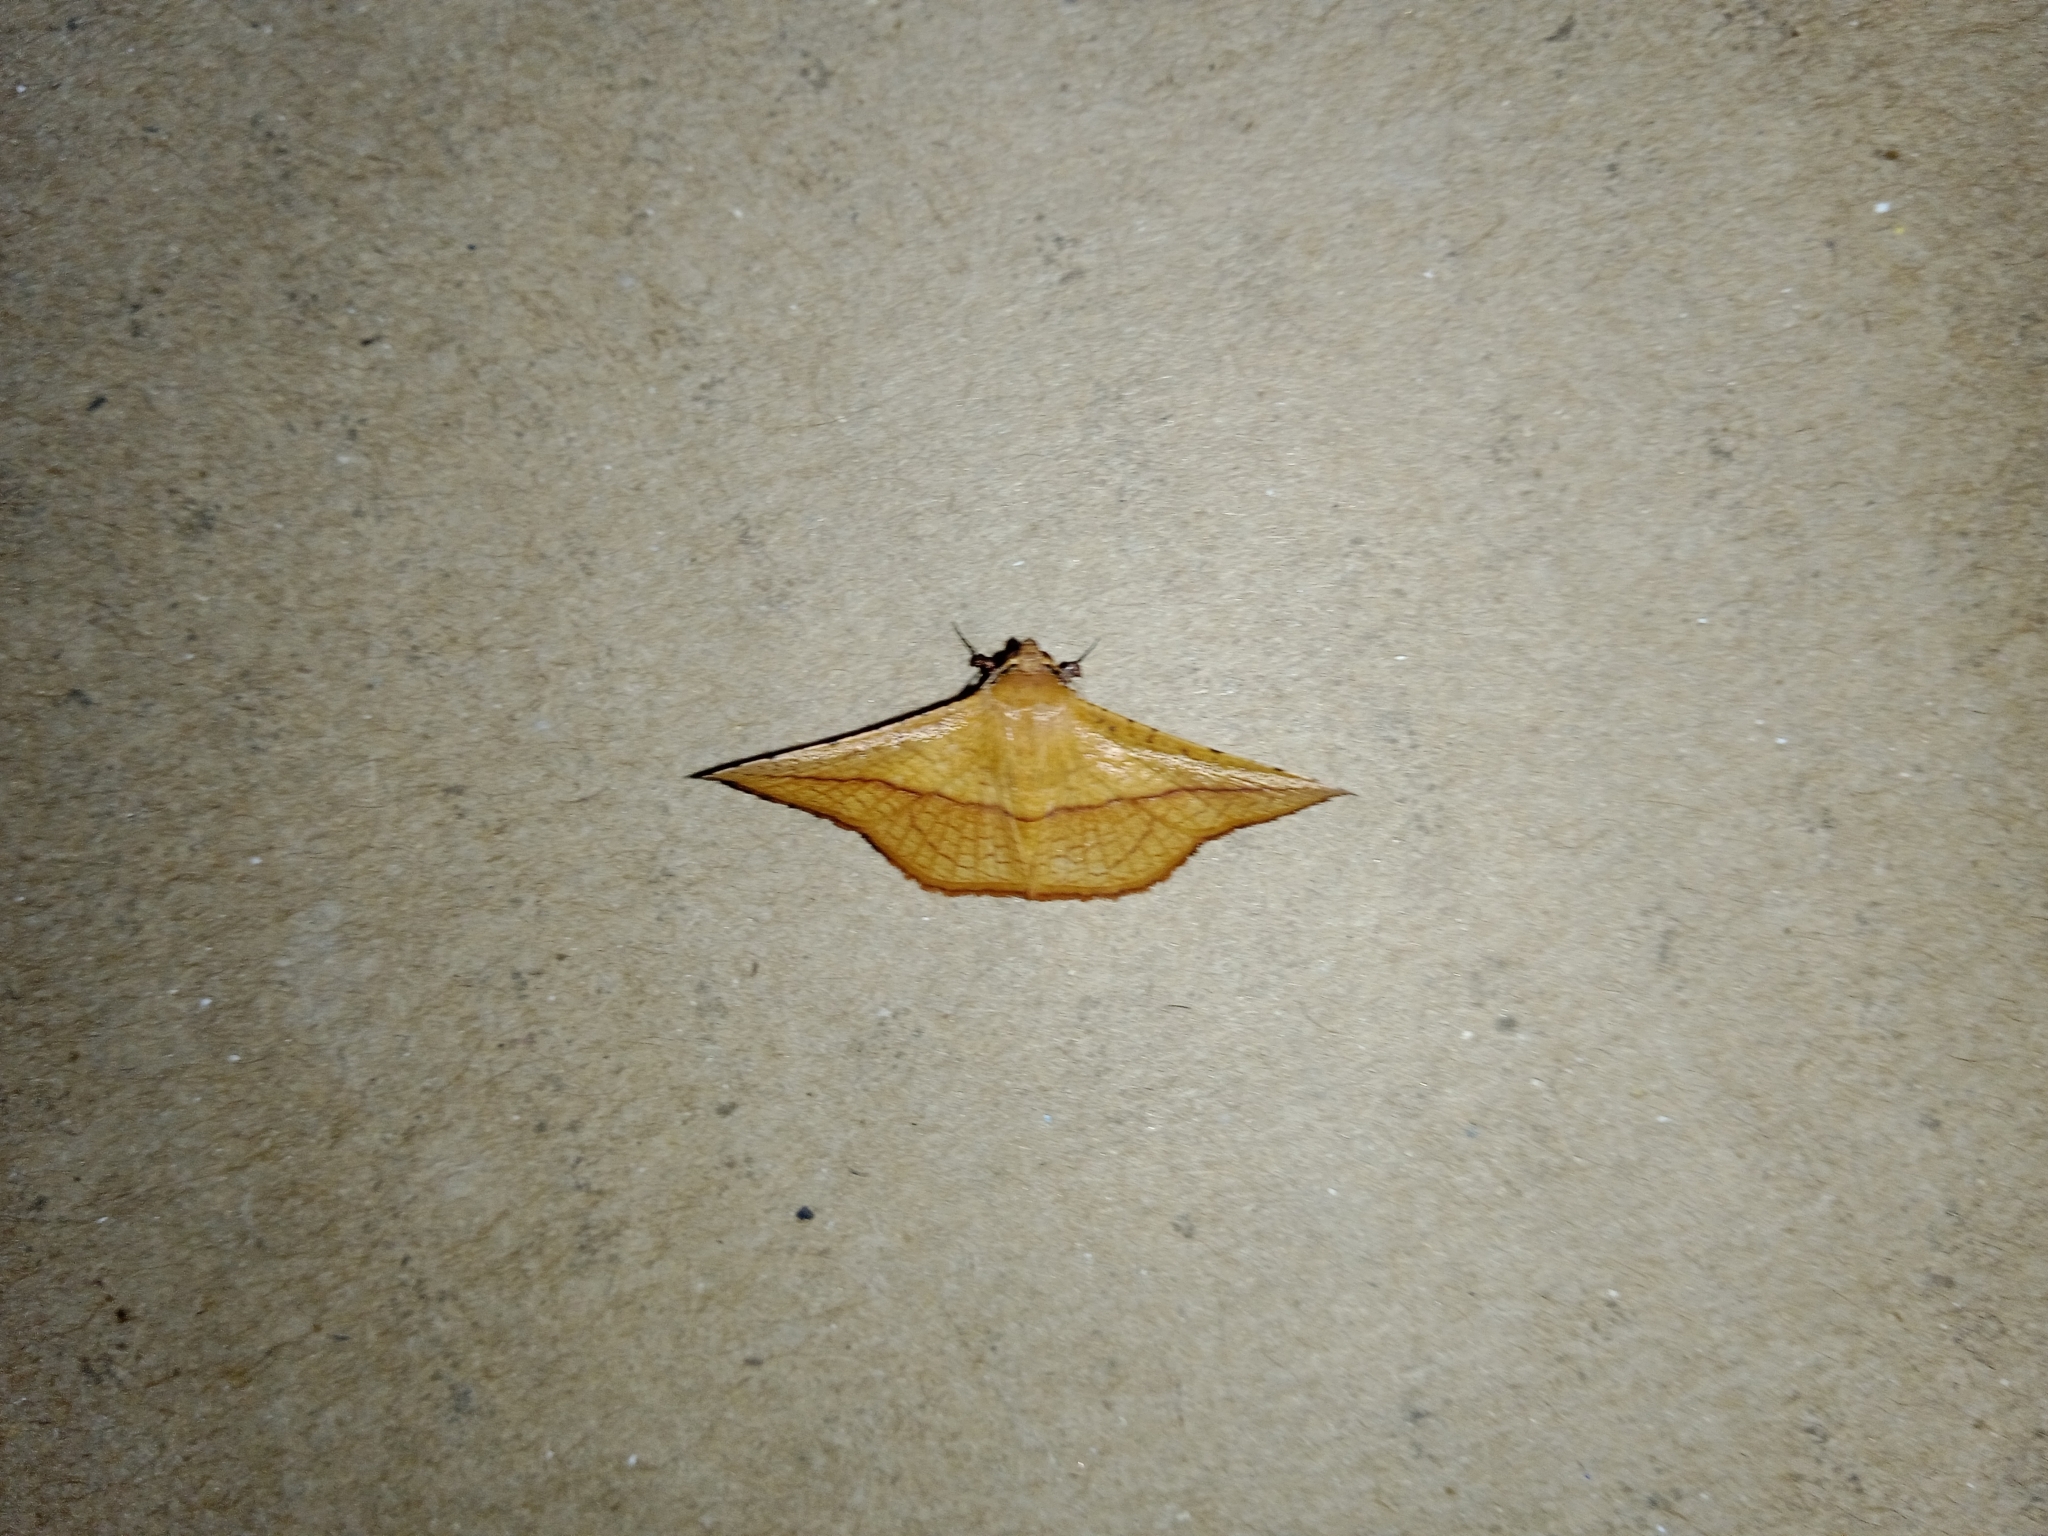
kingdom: Animalia
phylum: Arthropoda
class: Insecta
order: Lepidoptera
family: Thyrididae
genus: Striglina
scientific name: Striglina scitaria
